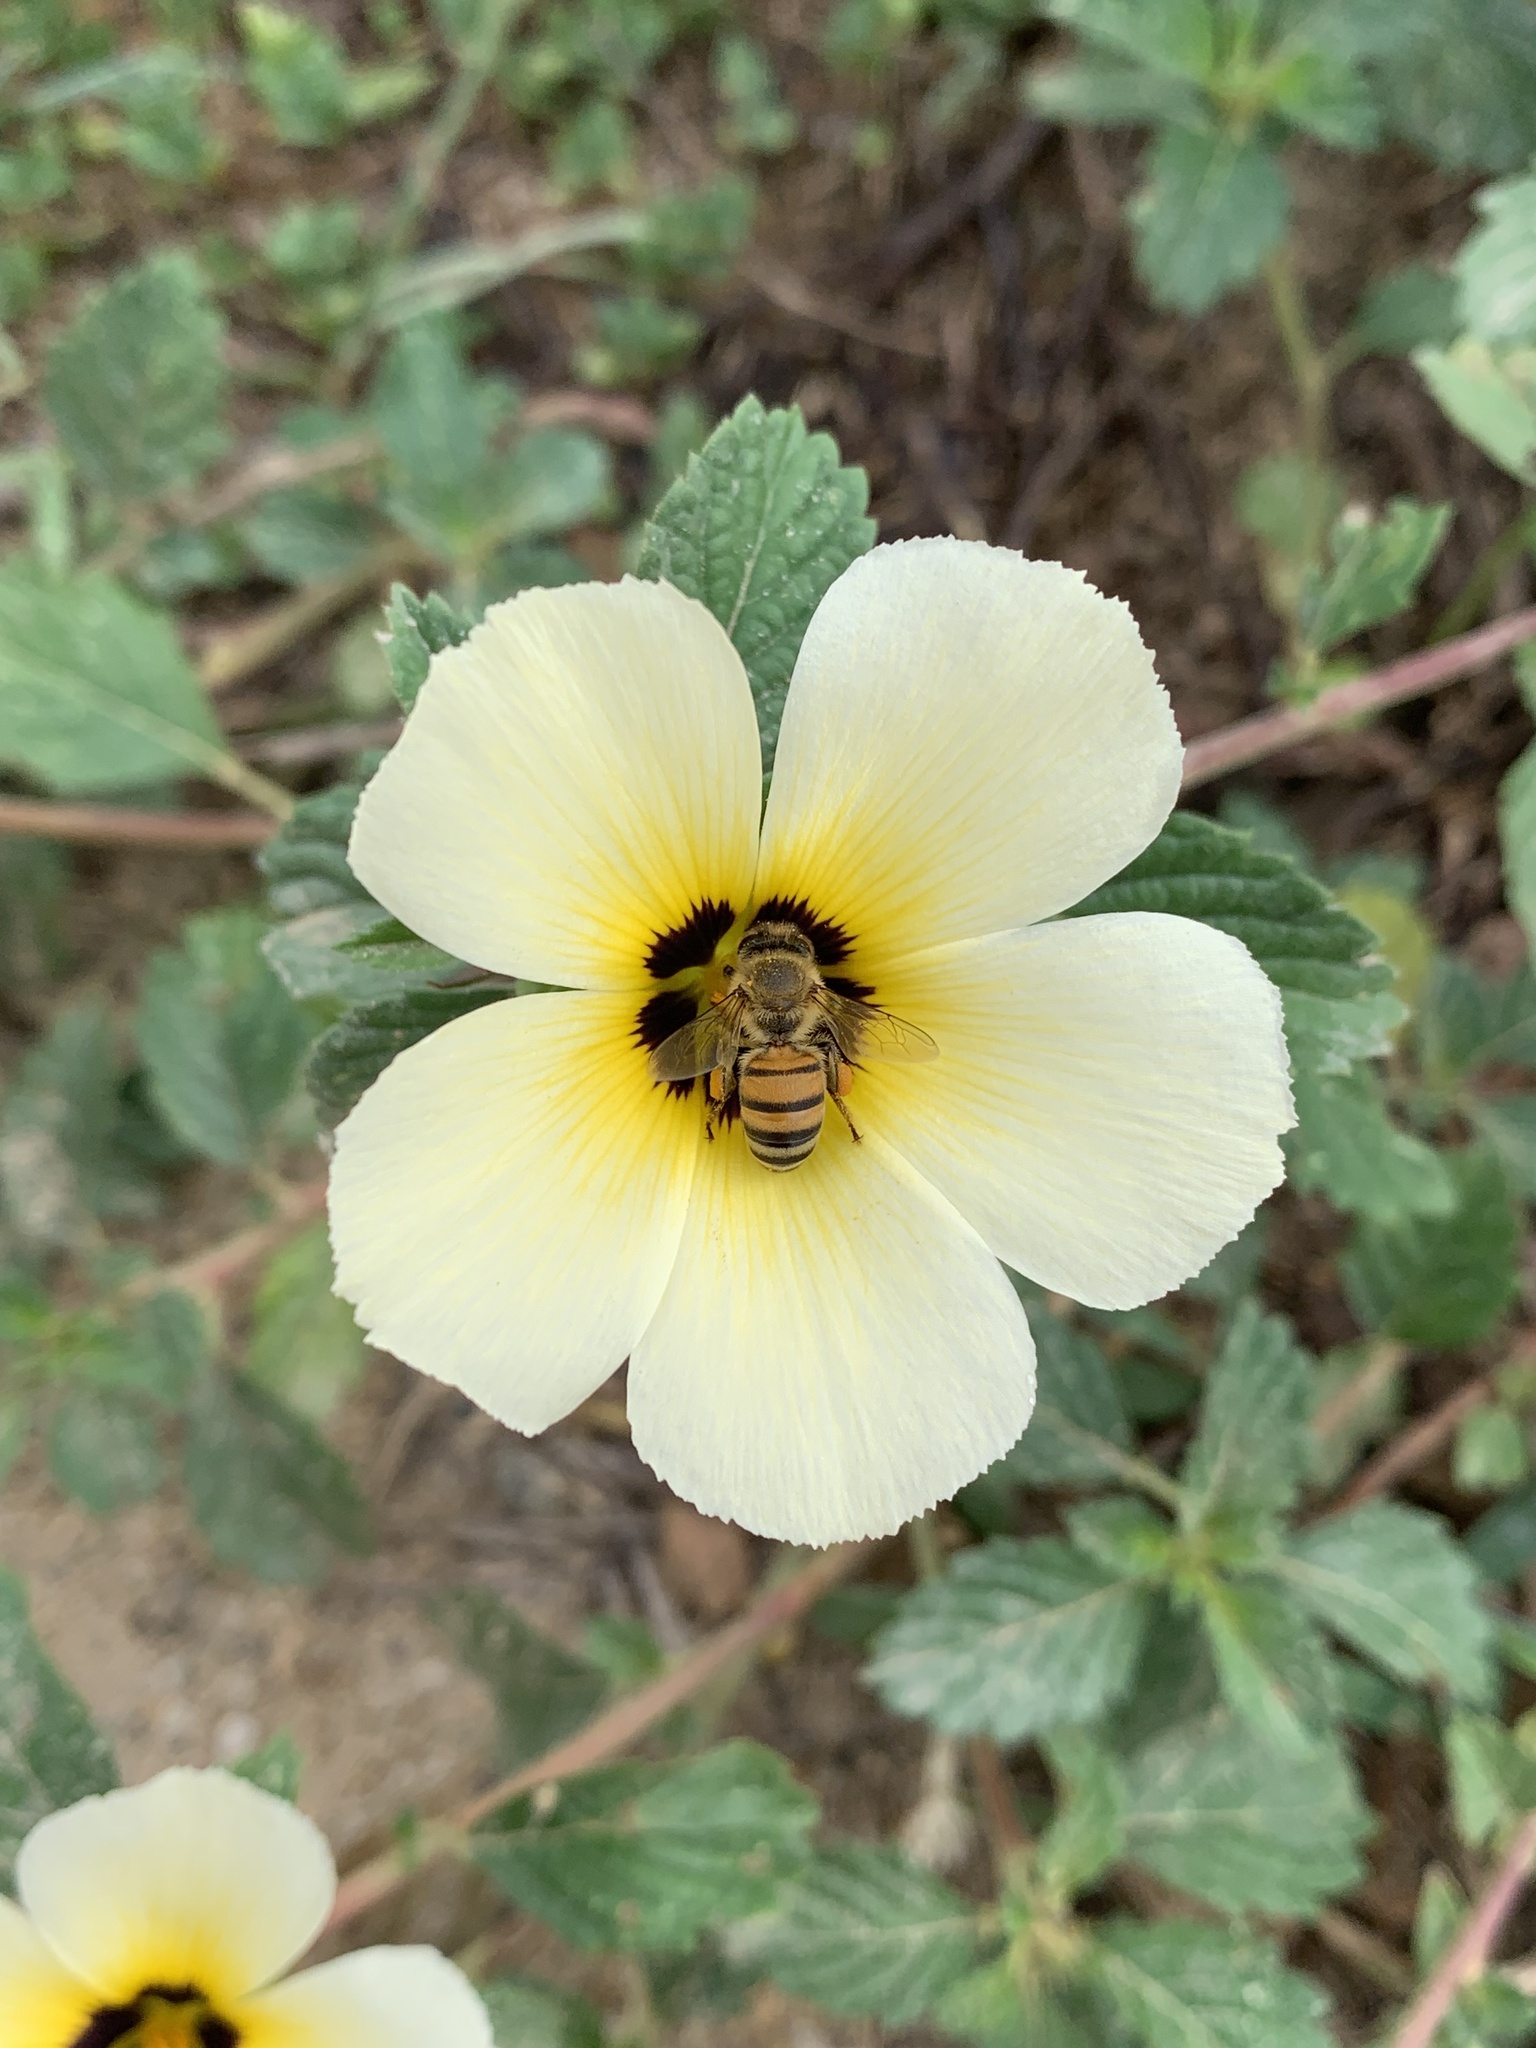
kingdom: Animalia
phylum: Arthropoda
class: Insecta
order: Hymenoptera
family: Apidae
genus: Apis
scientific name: Apis mellifera
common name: Honey bee
